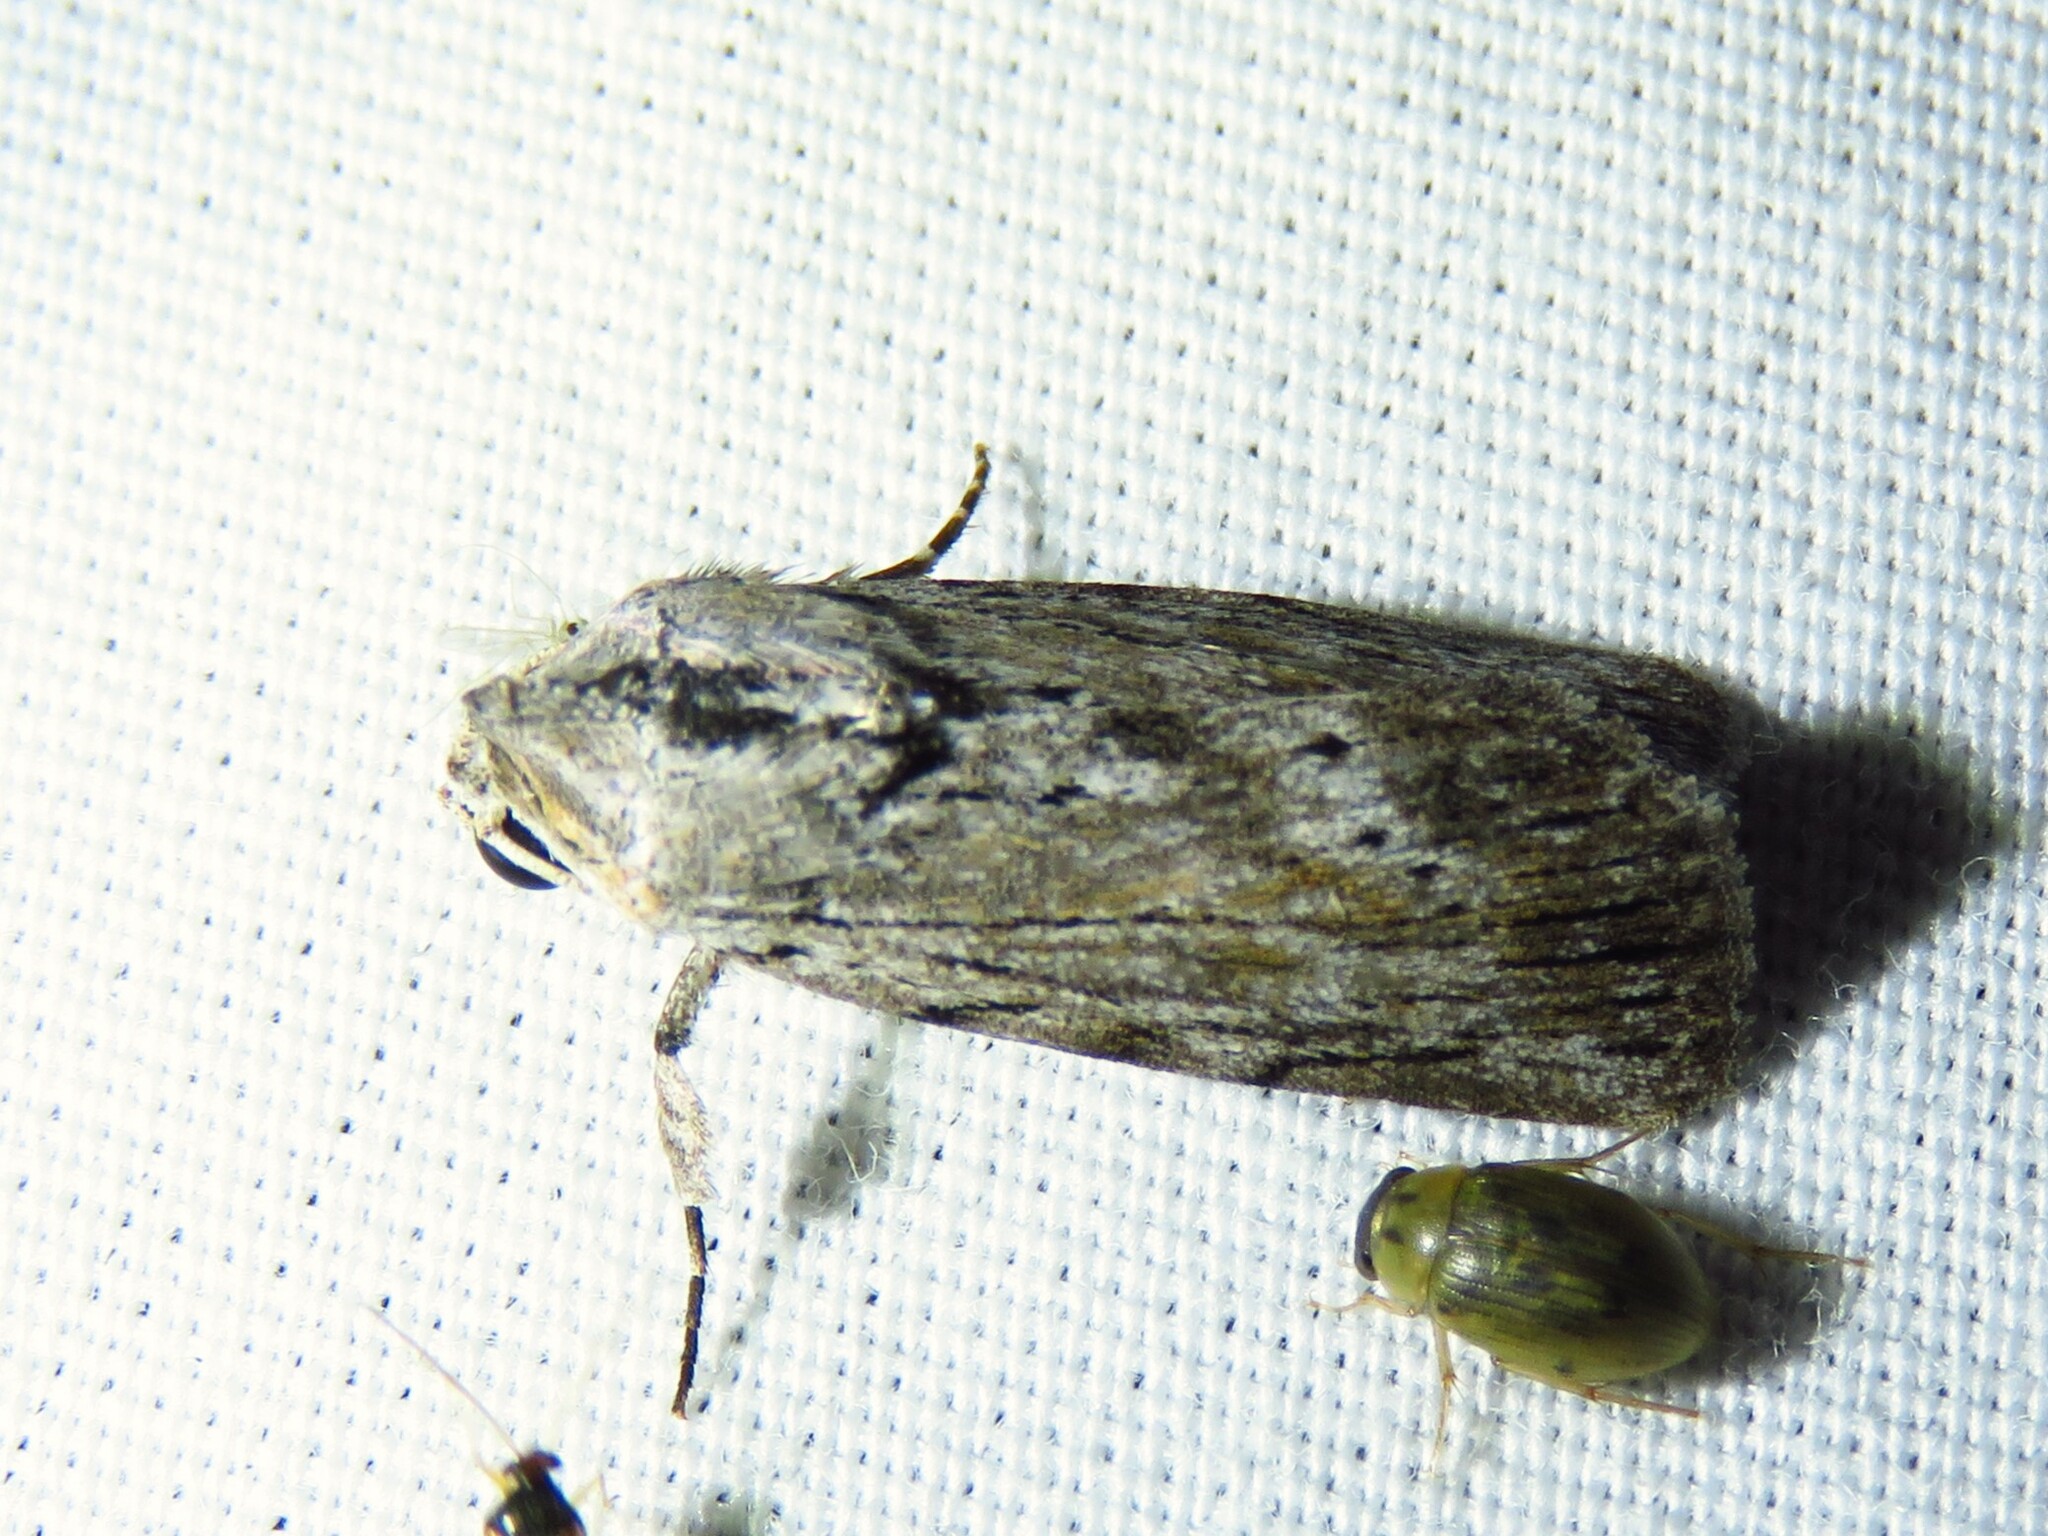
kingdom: Animalia
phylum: Arthropoda
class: Insecta
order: Lepidoptera
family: Noctuidae
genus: Catabenoides
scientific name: Catabenoides terminellus
